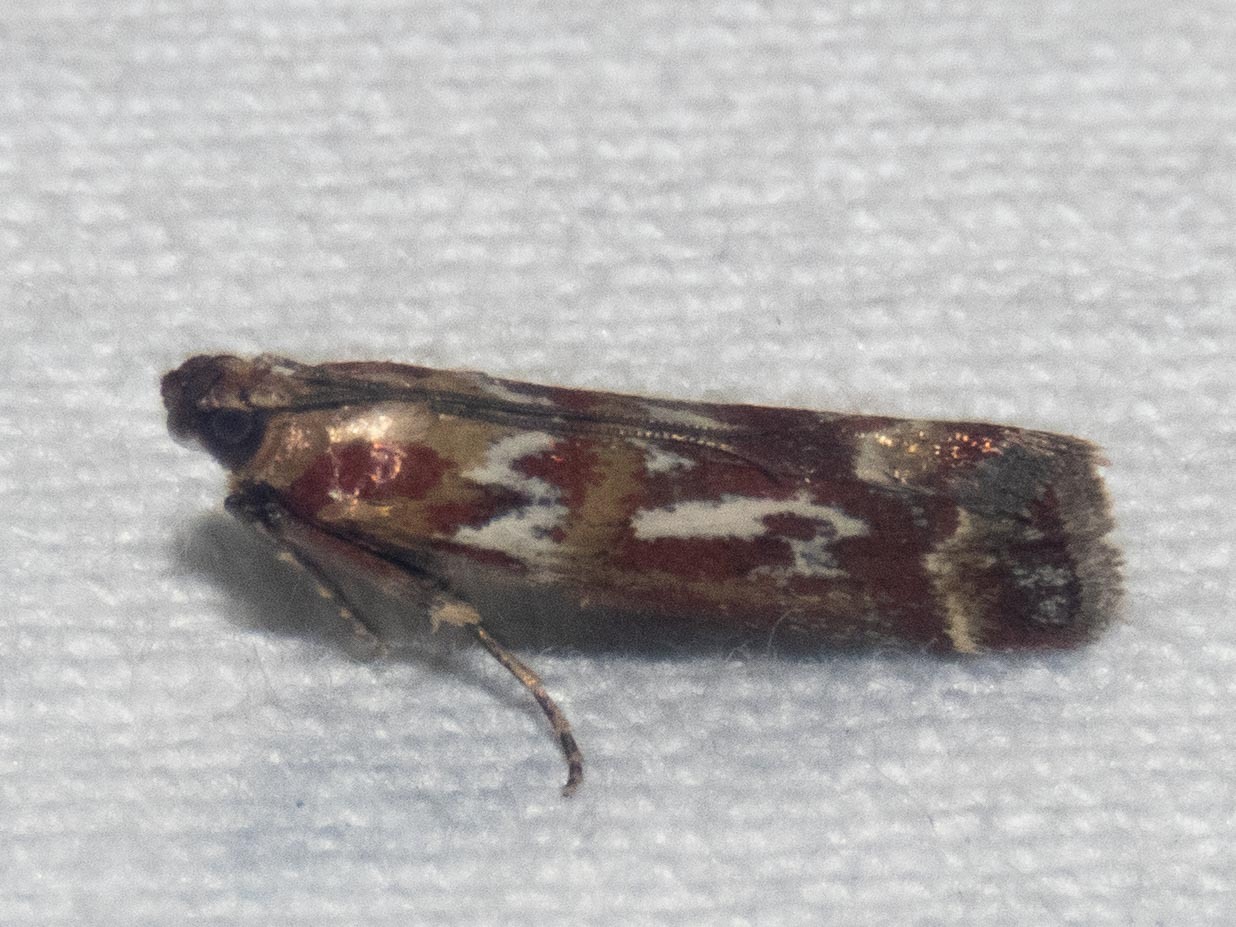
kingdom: Animalia
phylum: Arthropoda
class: Insecta
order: Lepidoptera
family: Pyralidae
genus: Acrobasis
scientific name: Acrobasis porphyrella
